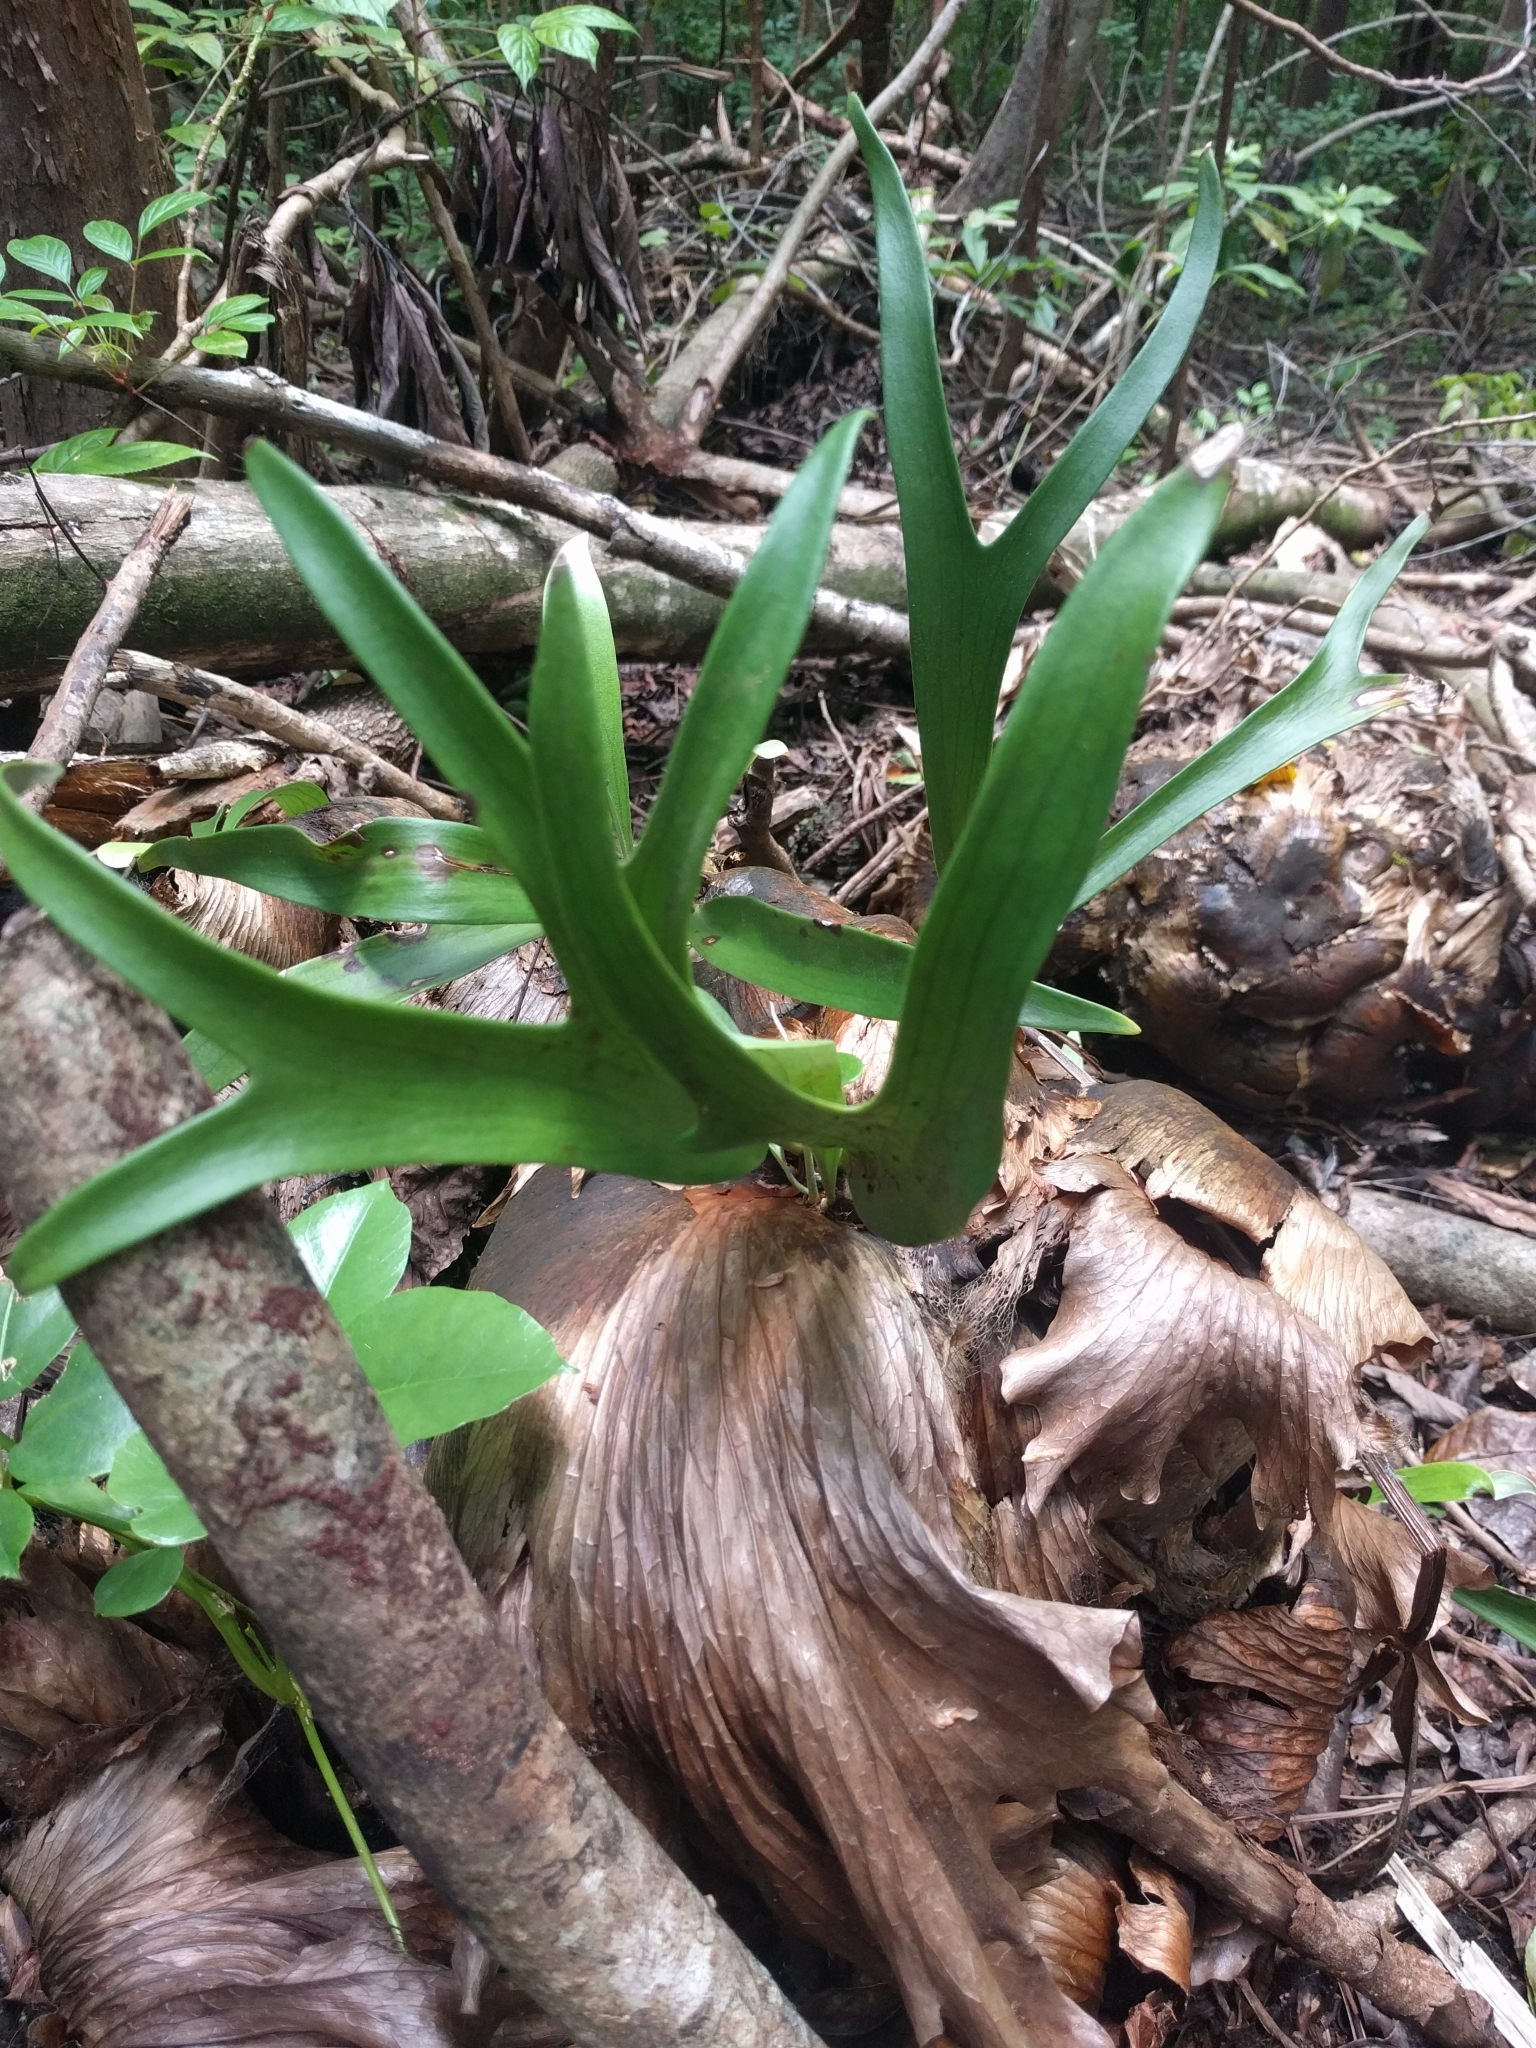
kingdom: Plantae
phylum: Tracheophyta
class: Polypodiopsida
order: Polypodiales
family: Polypodiaceae
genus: Platycerium
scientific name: Platycerium bifurcatum
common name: Elkhorn fern
